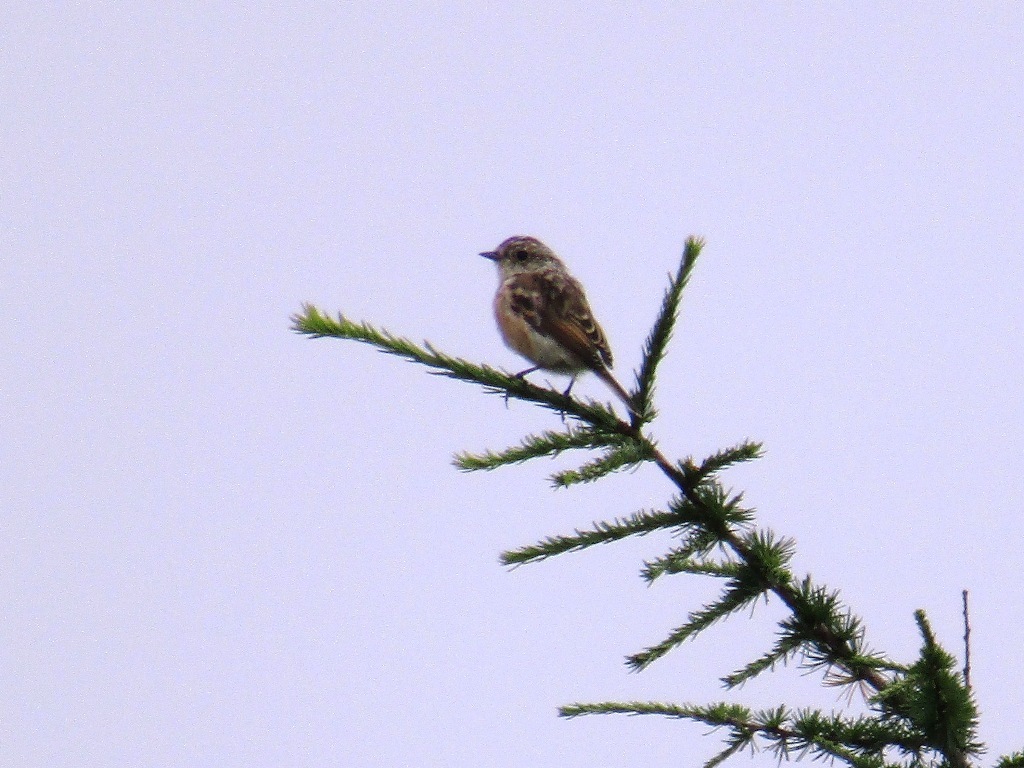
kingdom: Animalia
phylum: Chordata
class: Aves
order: Passeriformes
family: Muscicapidae
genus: Saxicola
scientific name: Saxicola stejnegeri
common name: Stejneger's stonechat
